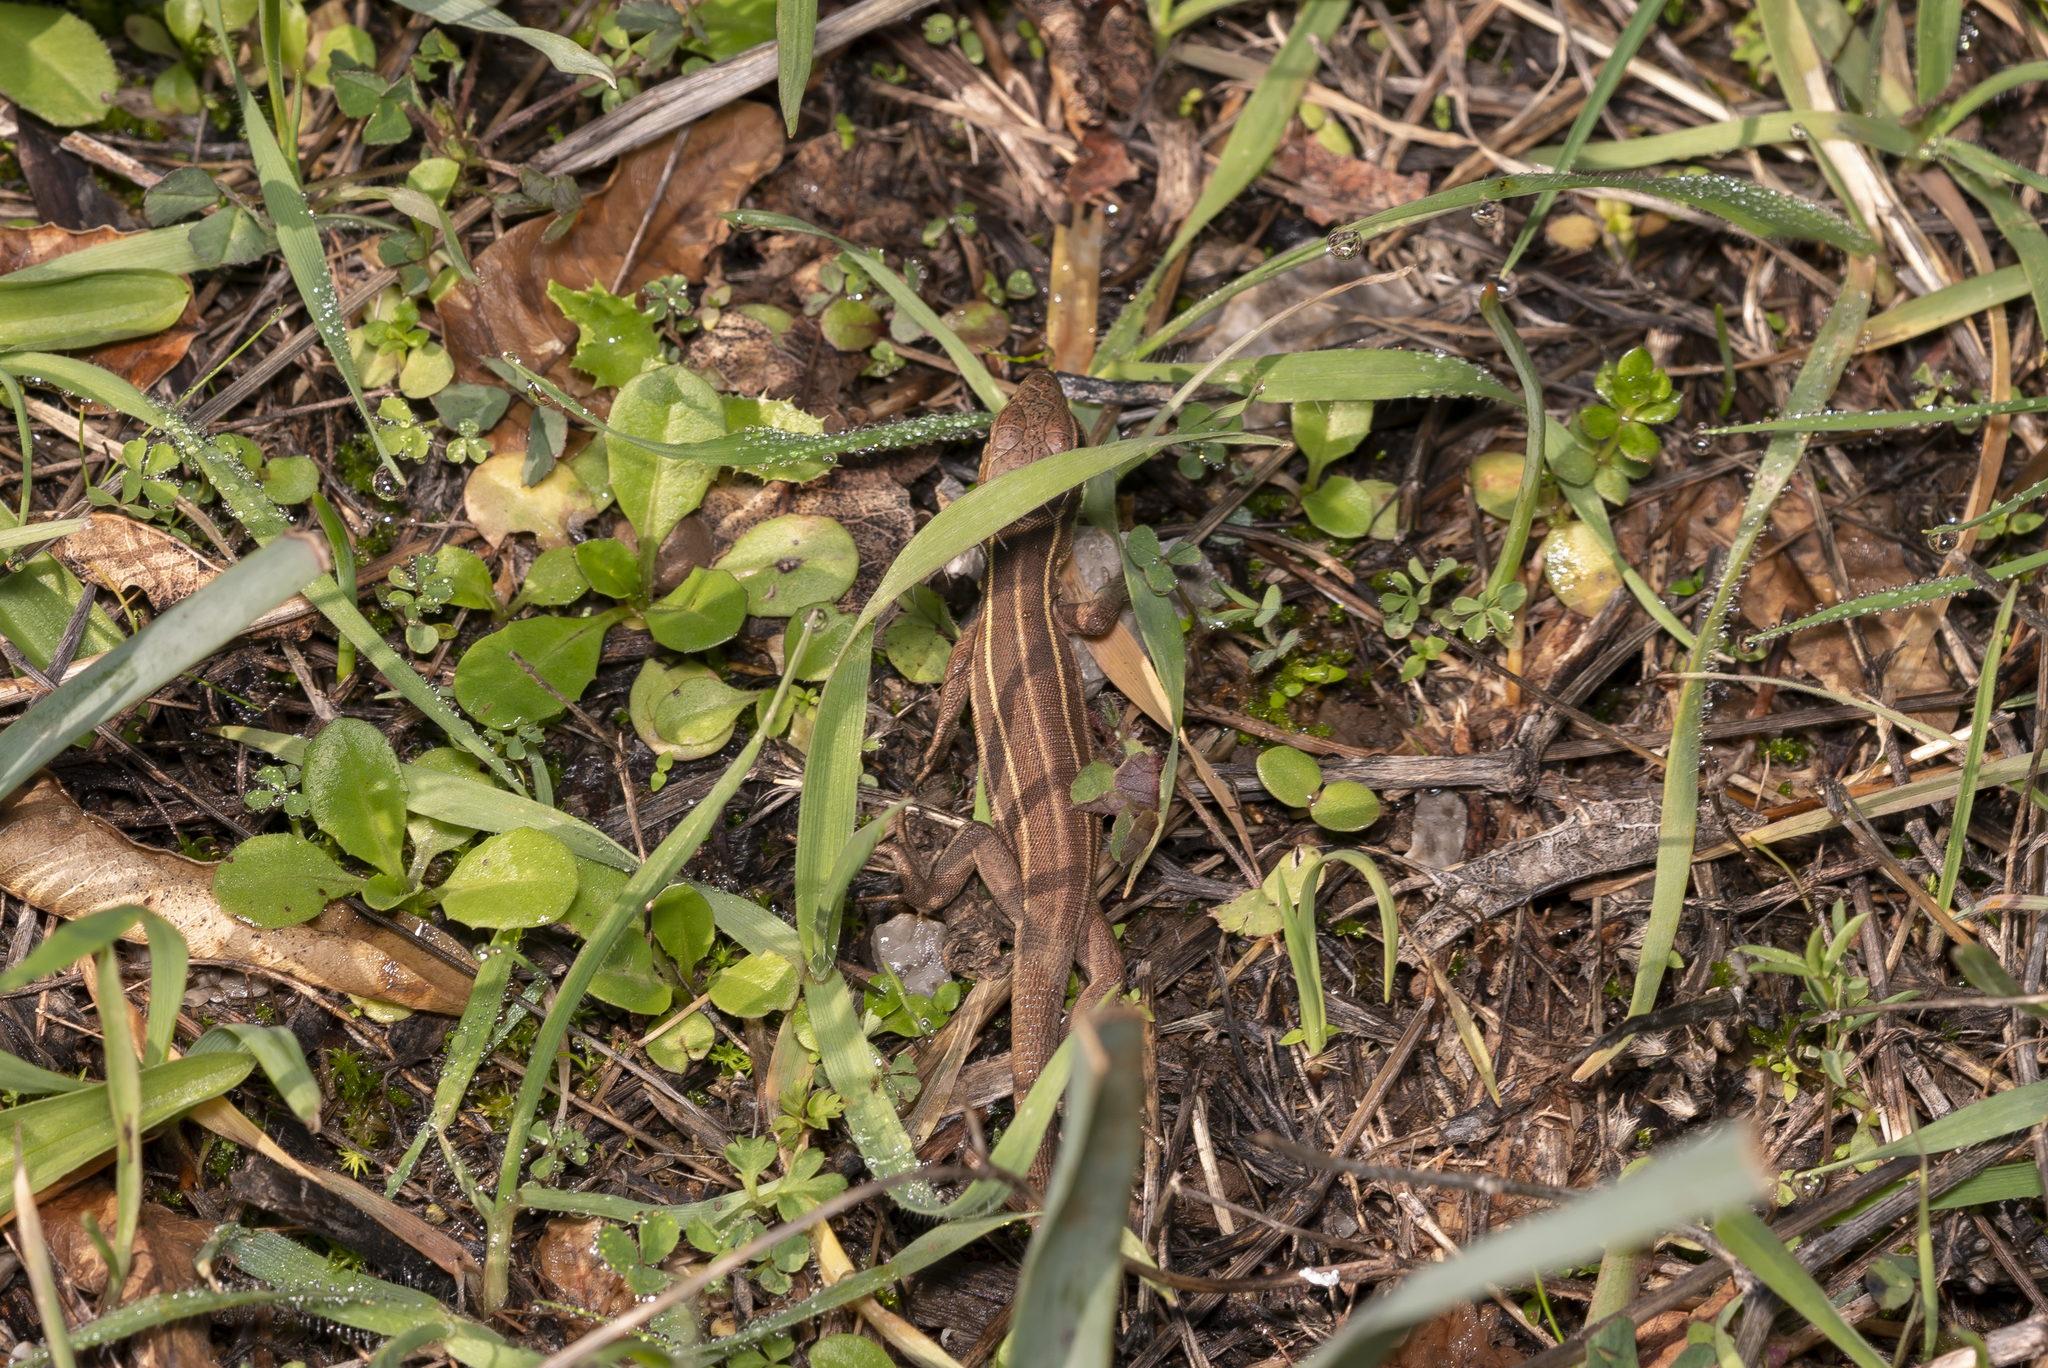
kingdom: Animalia
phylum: Chordata
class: Squamata
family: Lacertidae
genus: Lacerta
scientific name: Lacerta diplochondrodes
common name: Rhodos green lizard
